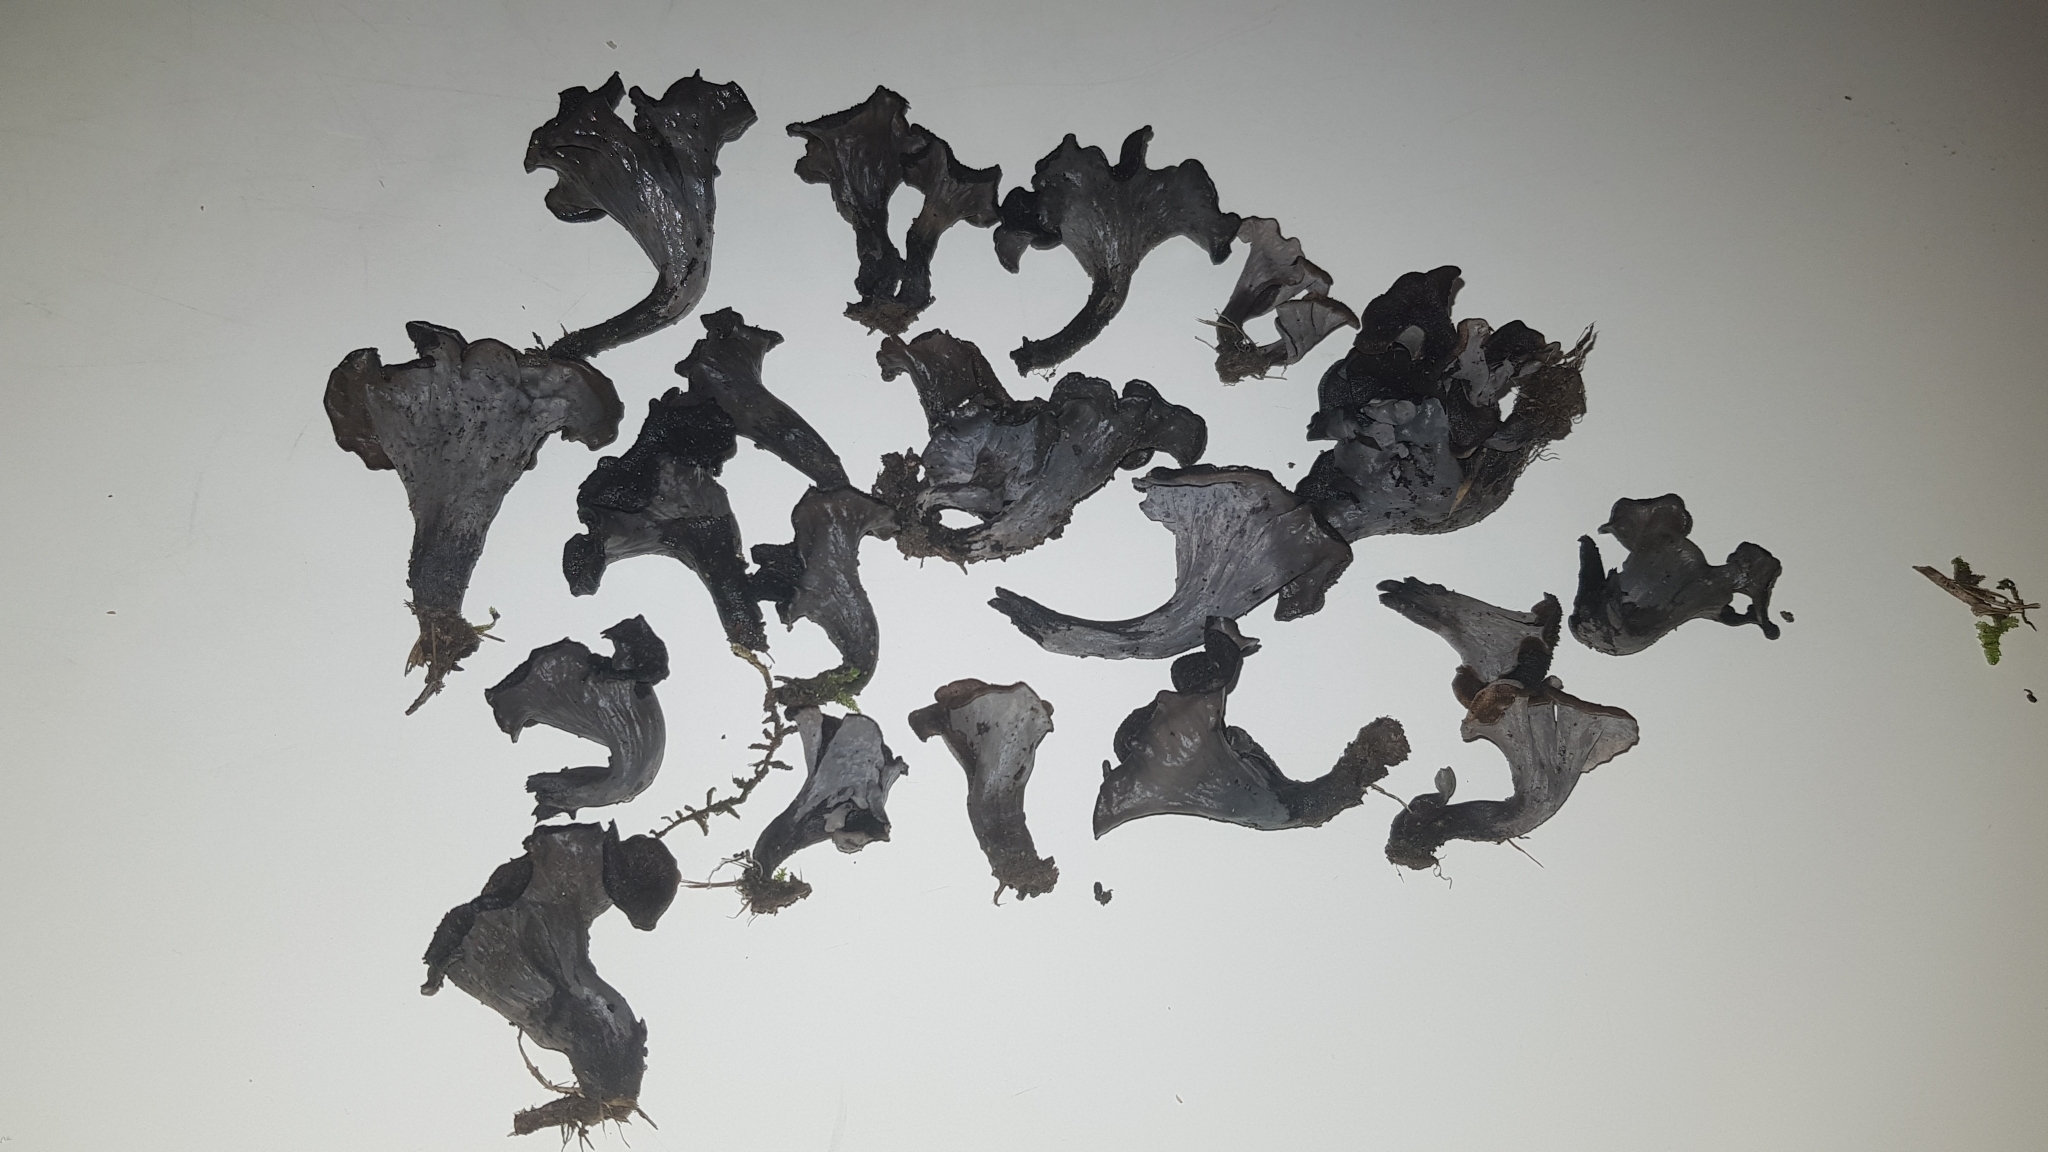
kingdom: Fungi
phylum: Basidiomycota
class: Agaricomycetes
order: Cantharellales
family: Hydnaceae
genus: Craterellus
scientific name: Craterellus cornucopioides
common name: Horn of plenty
